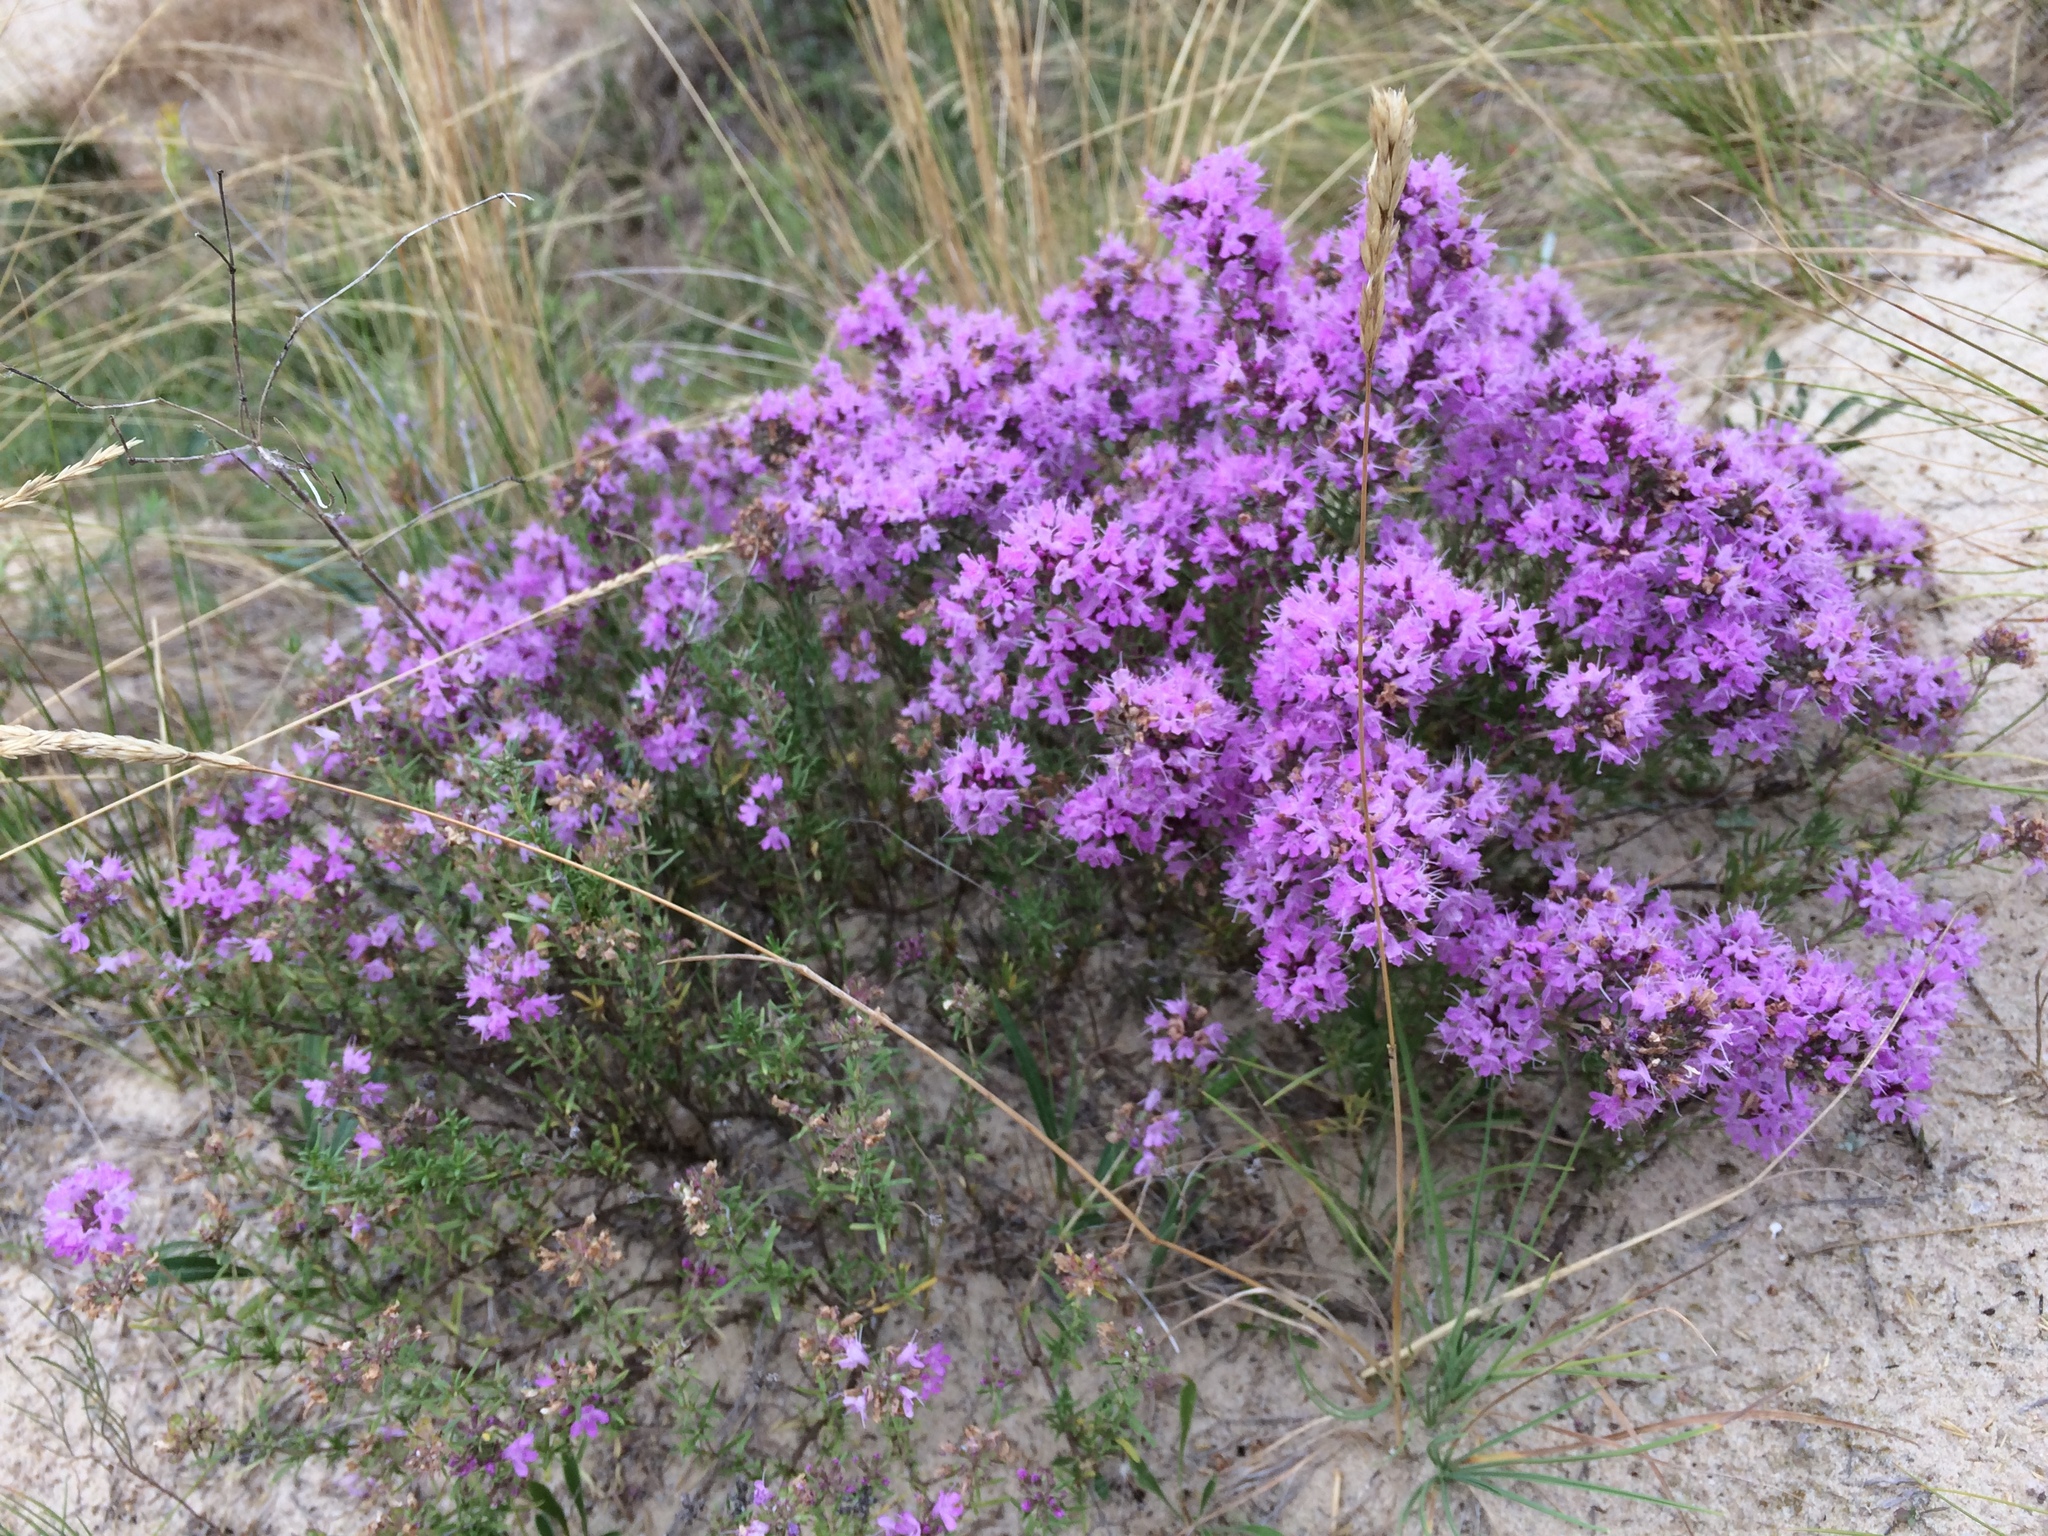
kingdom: Plantae
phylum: Tracheophyta
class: Magnoliopsida
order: Lamiales
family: Lamiaceae
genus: Thymus
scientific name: Thymus pallasianus
